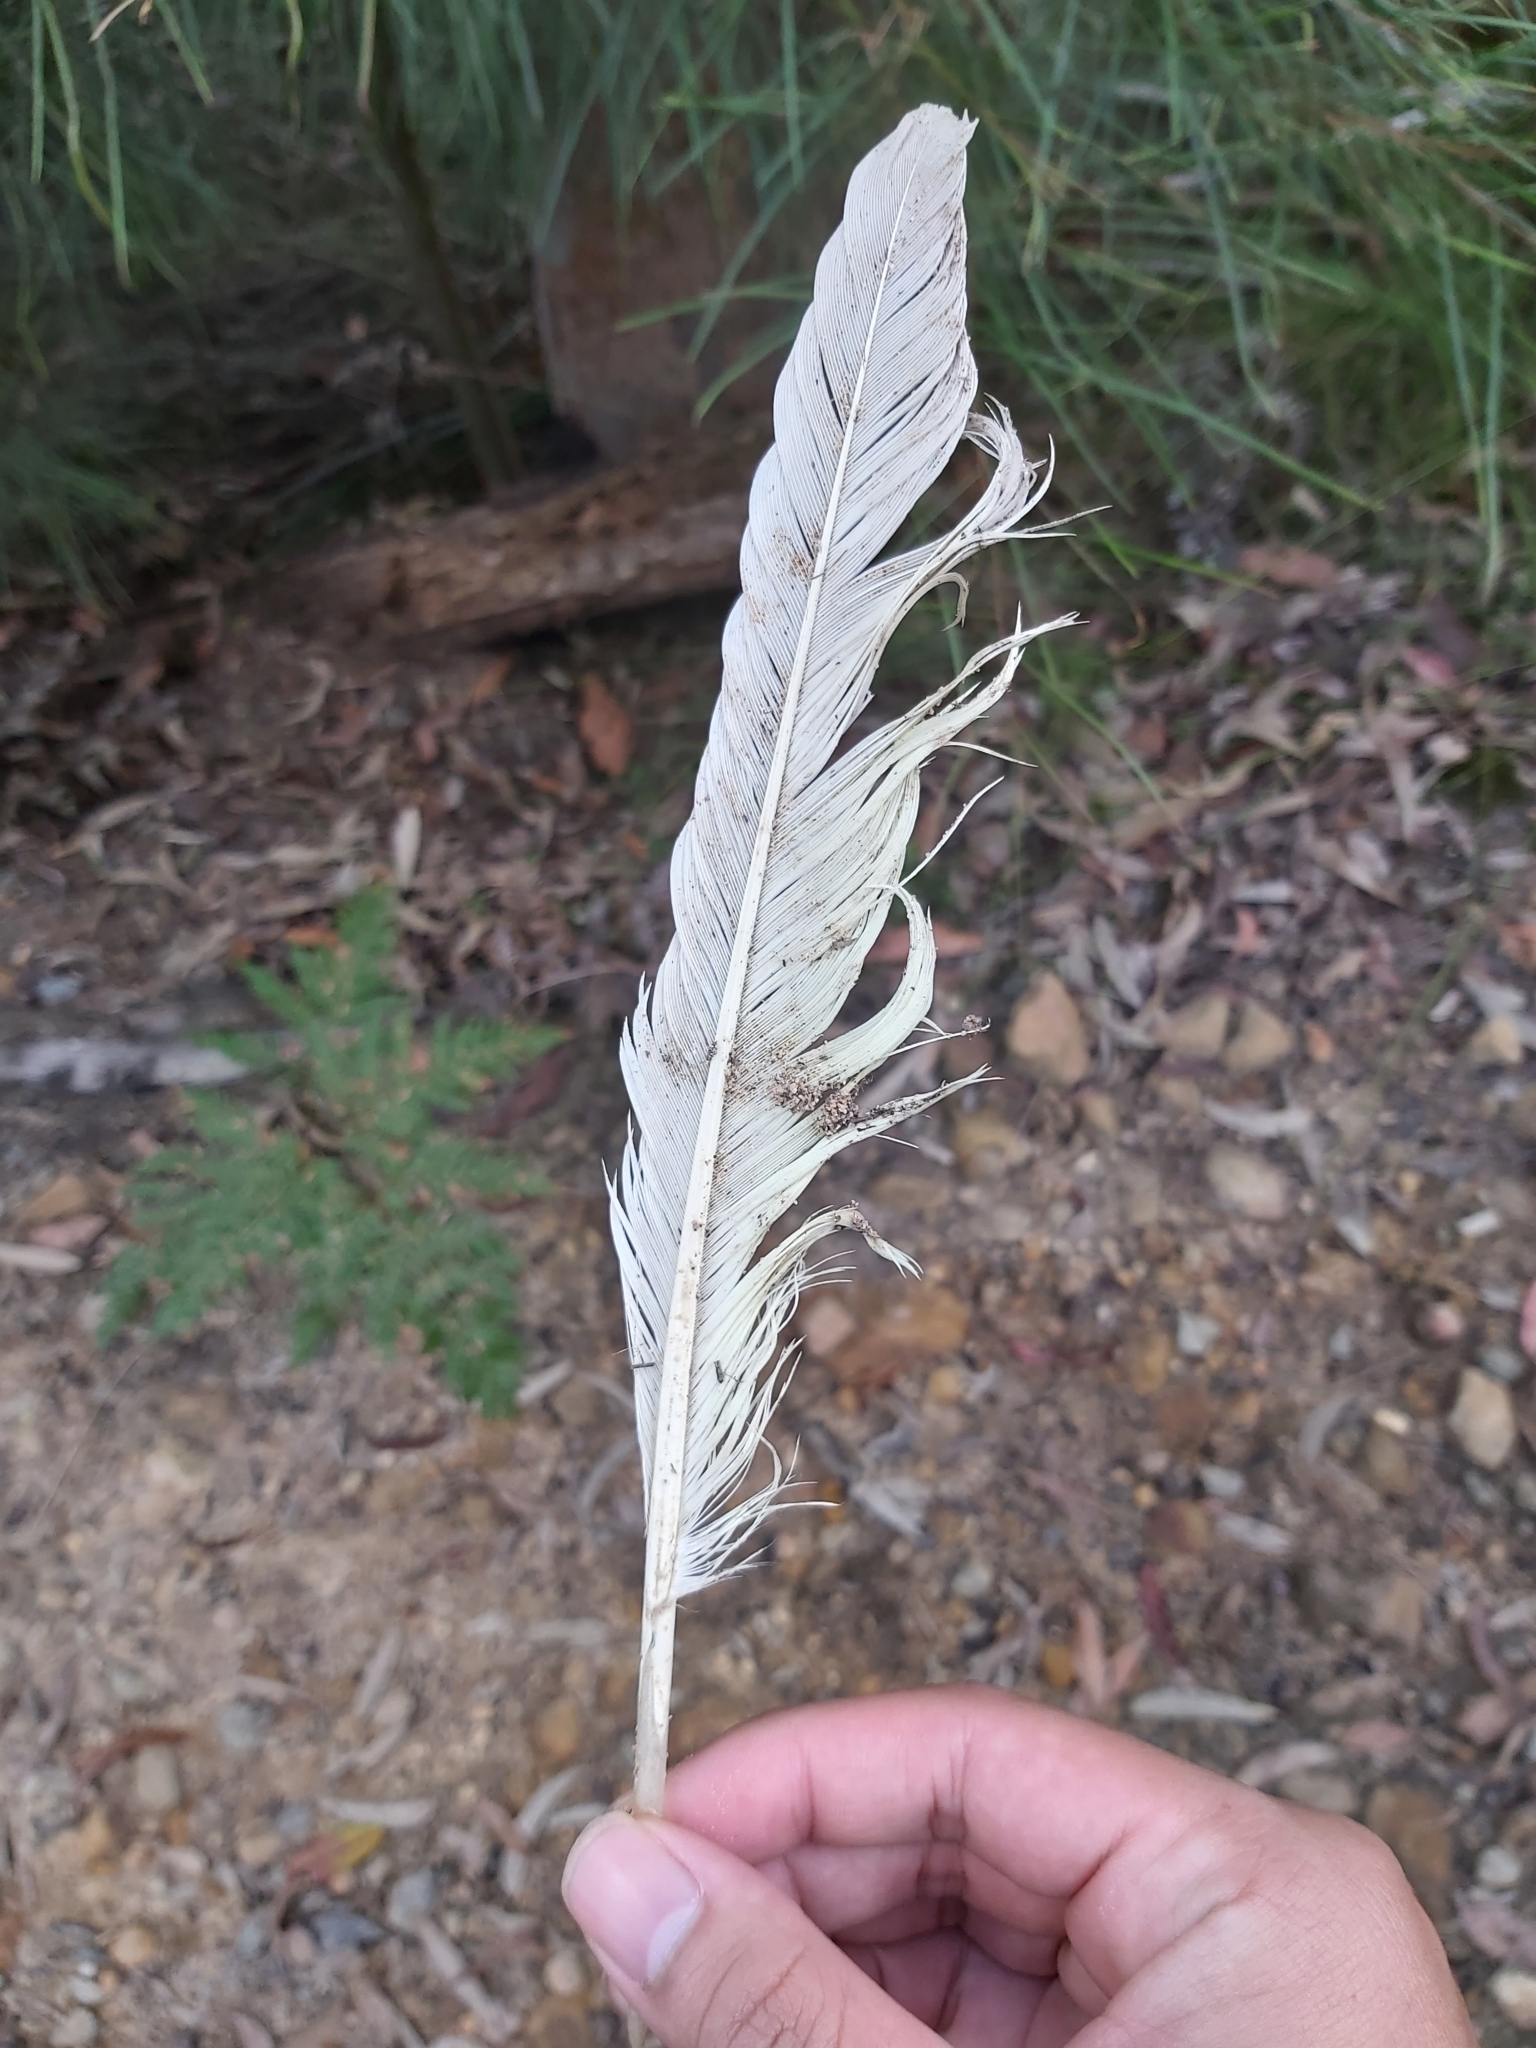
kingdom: Animalia
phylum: Chordata
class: Aves
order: Psittaciformes
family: Psittacidae
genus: Cacatua
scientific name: Cacatua galerita
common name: Sulphur-crested cockatoo
